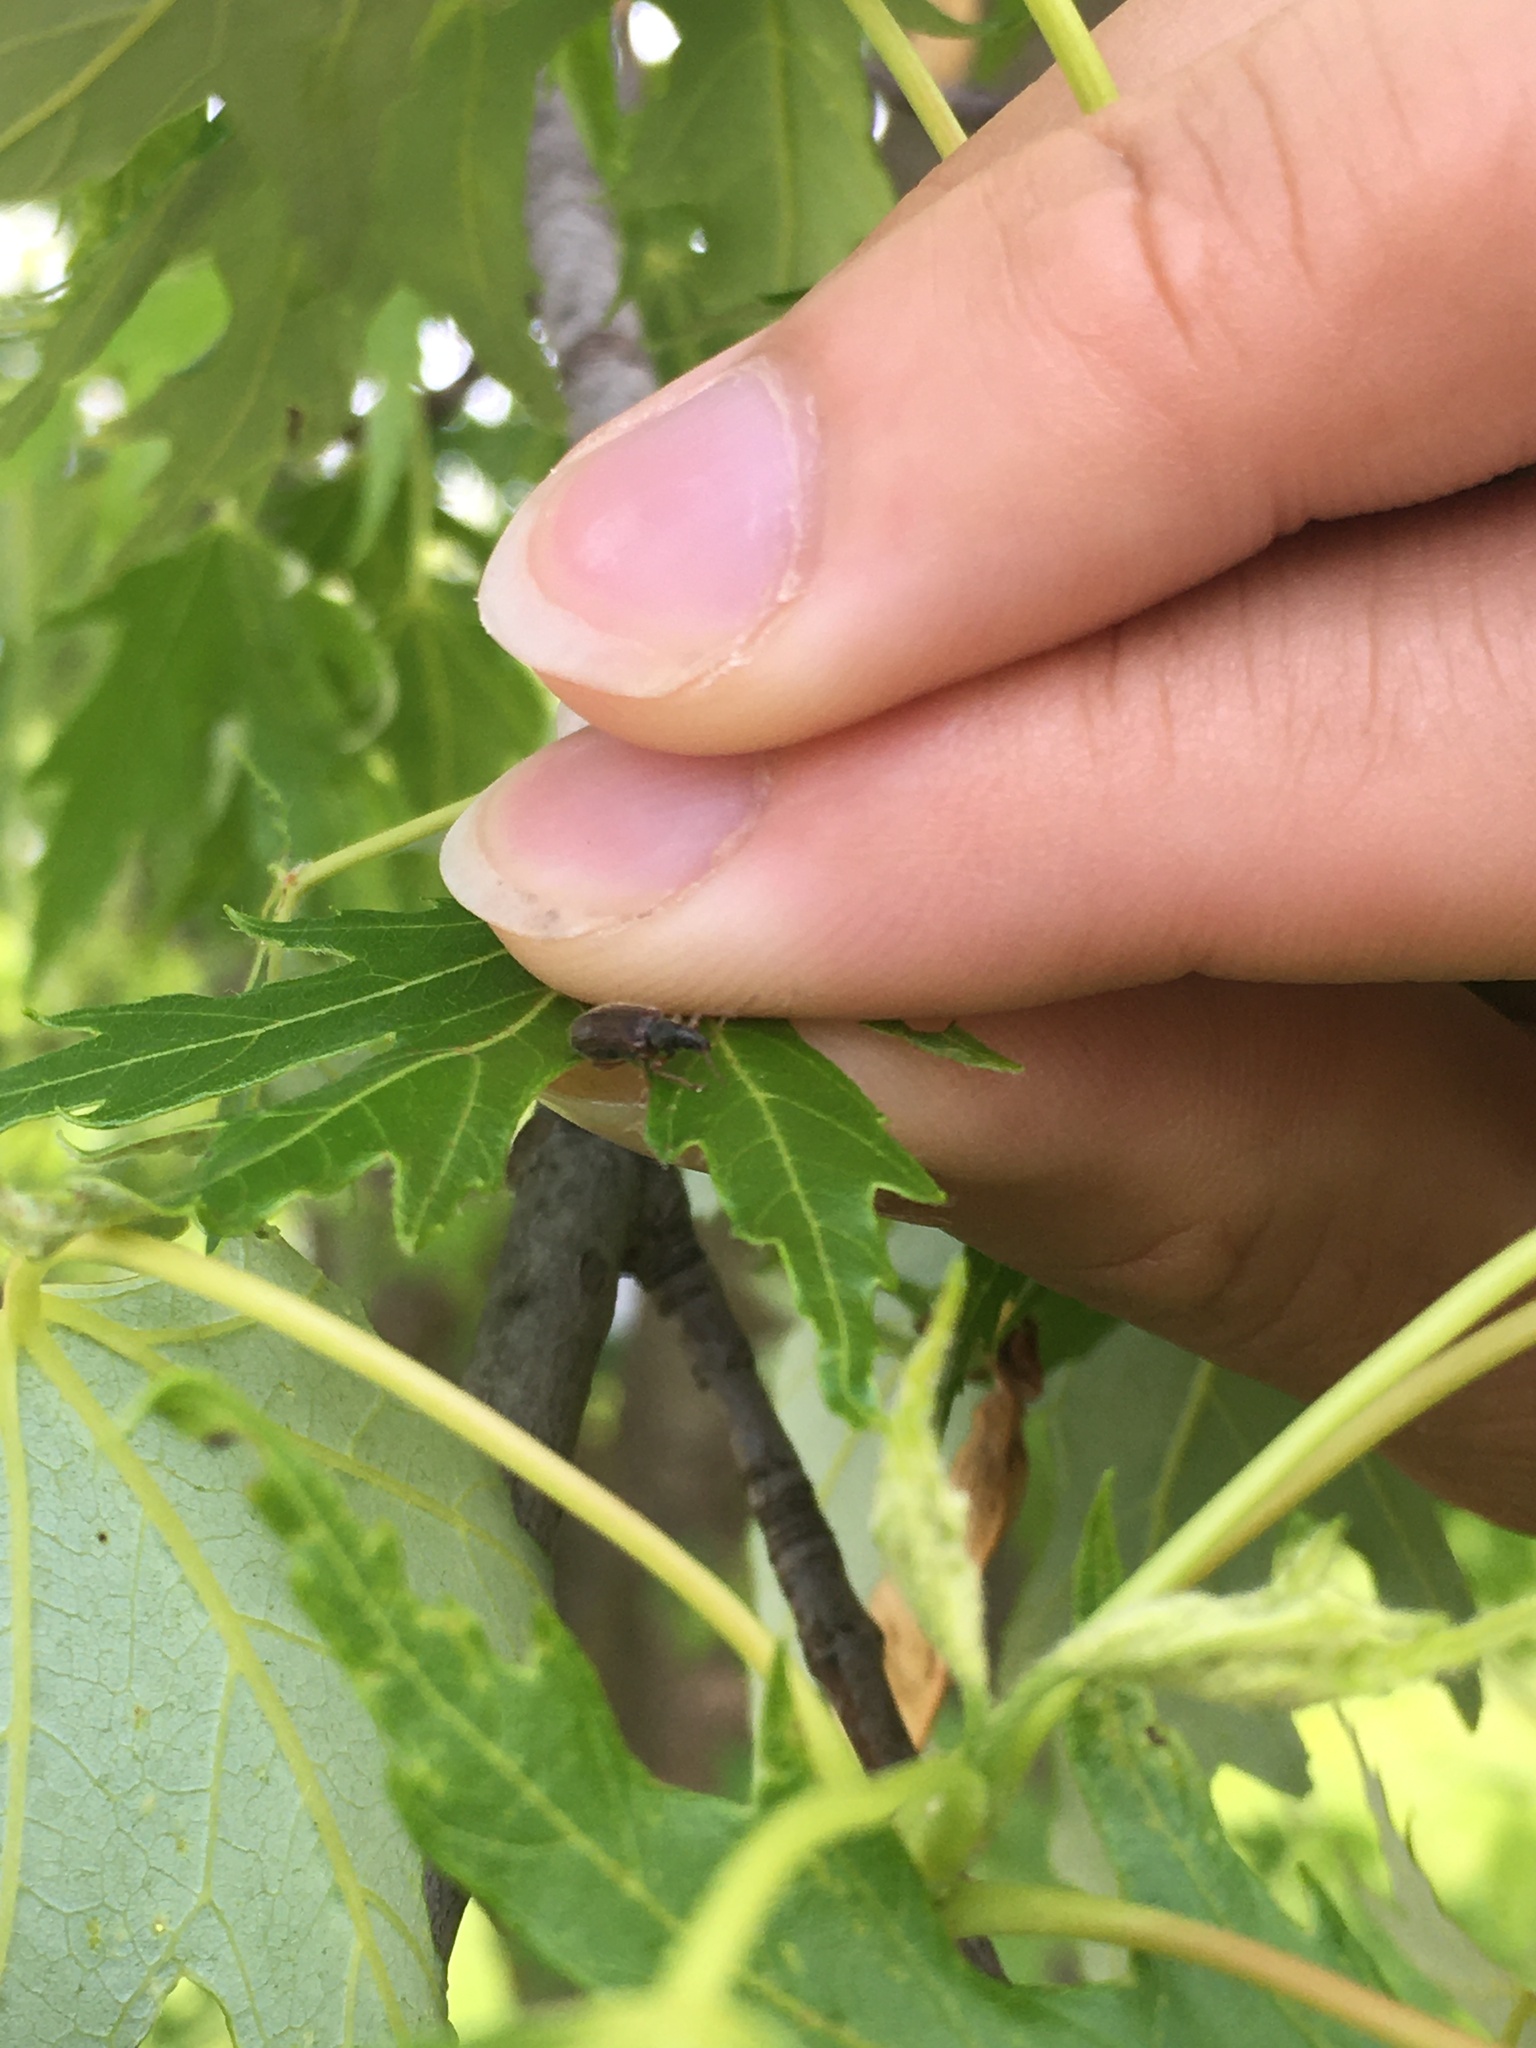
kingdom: Animalia
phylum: Arthropoda
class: Insecta
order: Coleoptera
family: Curculionidae
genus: Phyllobius
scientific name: Phyllobius oblongus
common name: Brown leaf weevil
